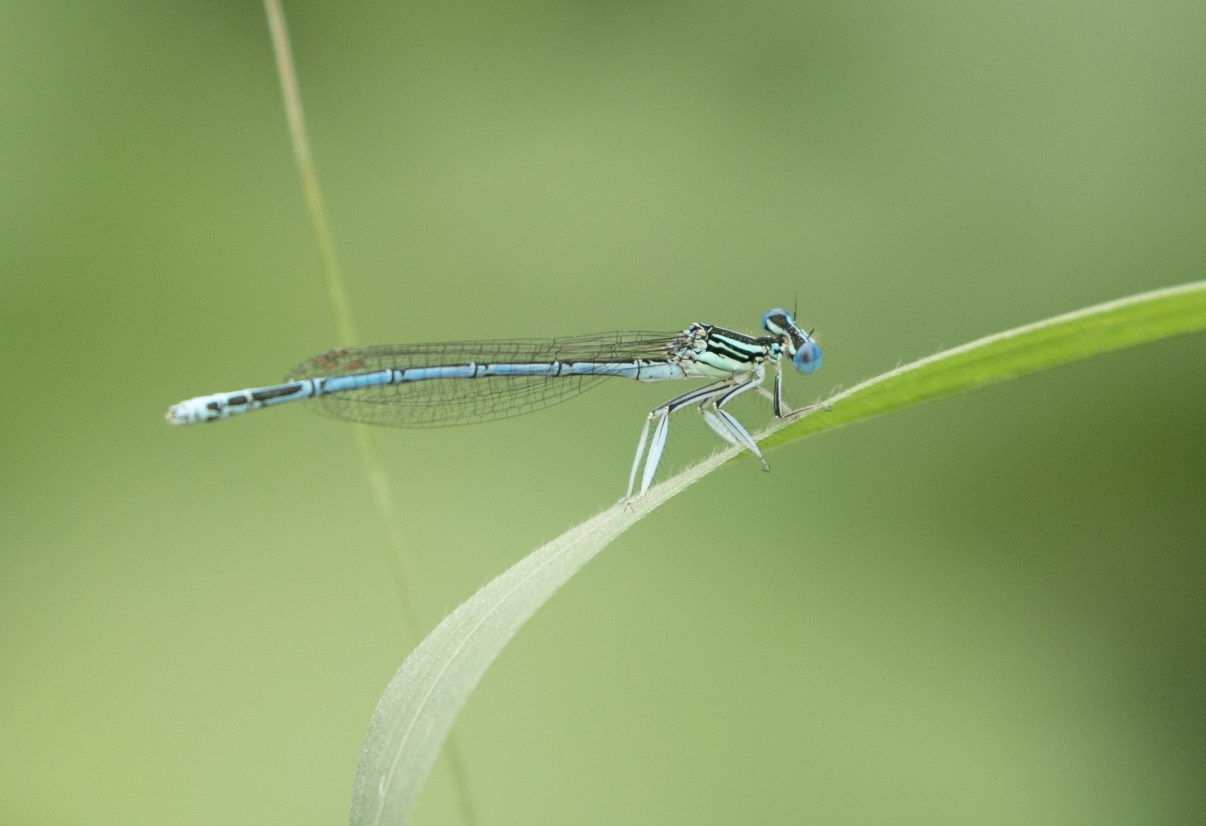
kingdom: Animalia
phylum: Arthropoda
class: Insecta
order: Odonata
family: Platycnemididae
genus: Platycnemis
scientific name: Platycnemis pennipes
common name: White-legged damselfly
